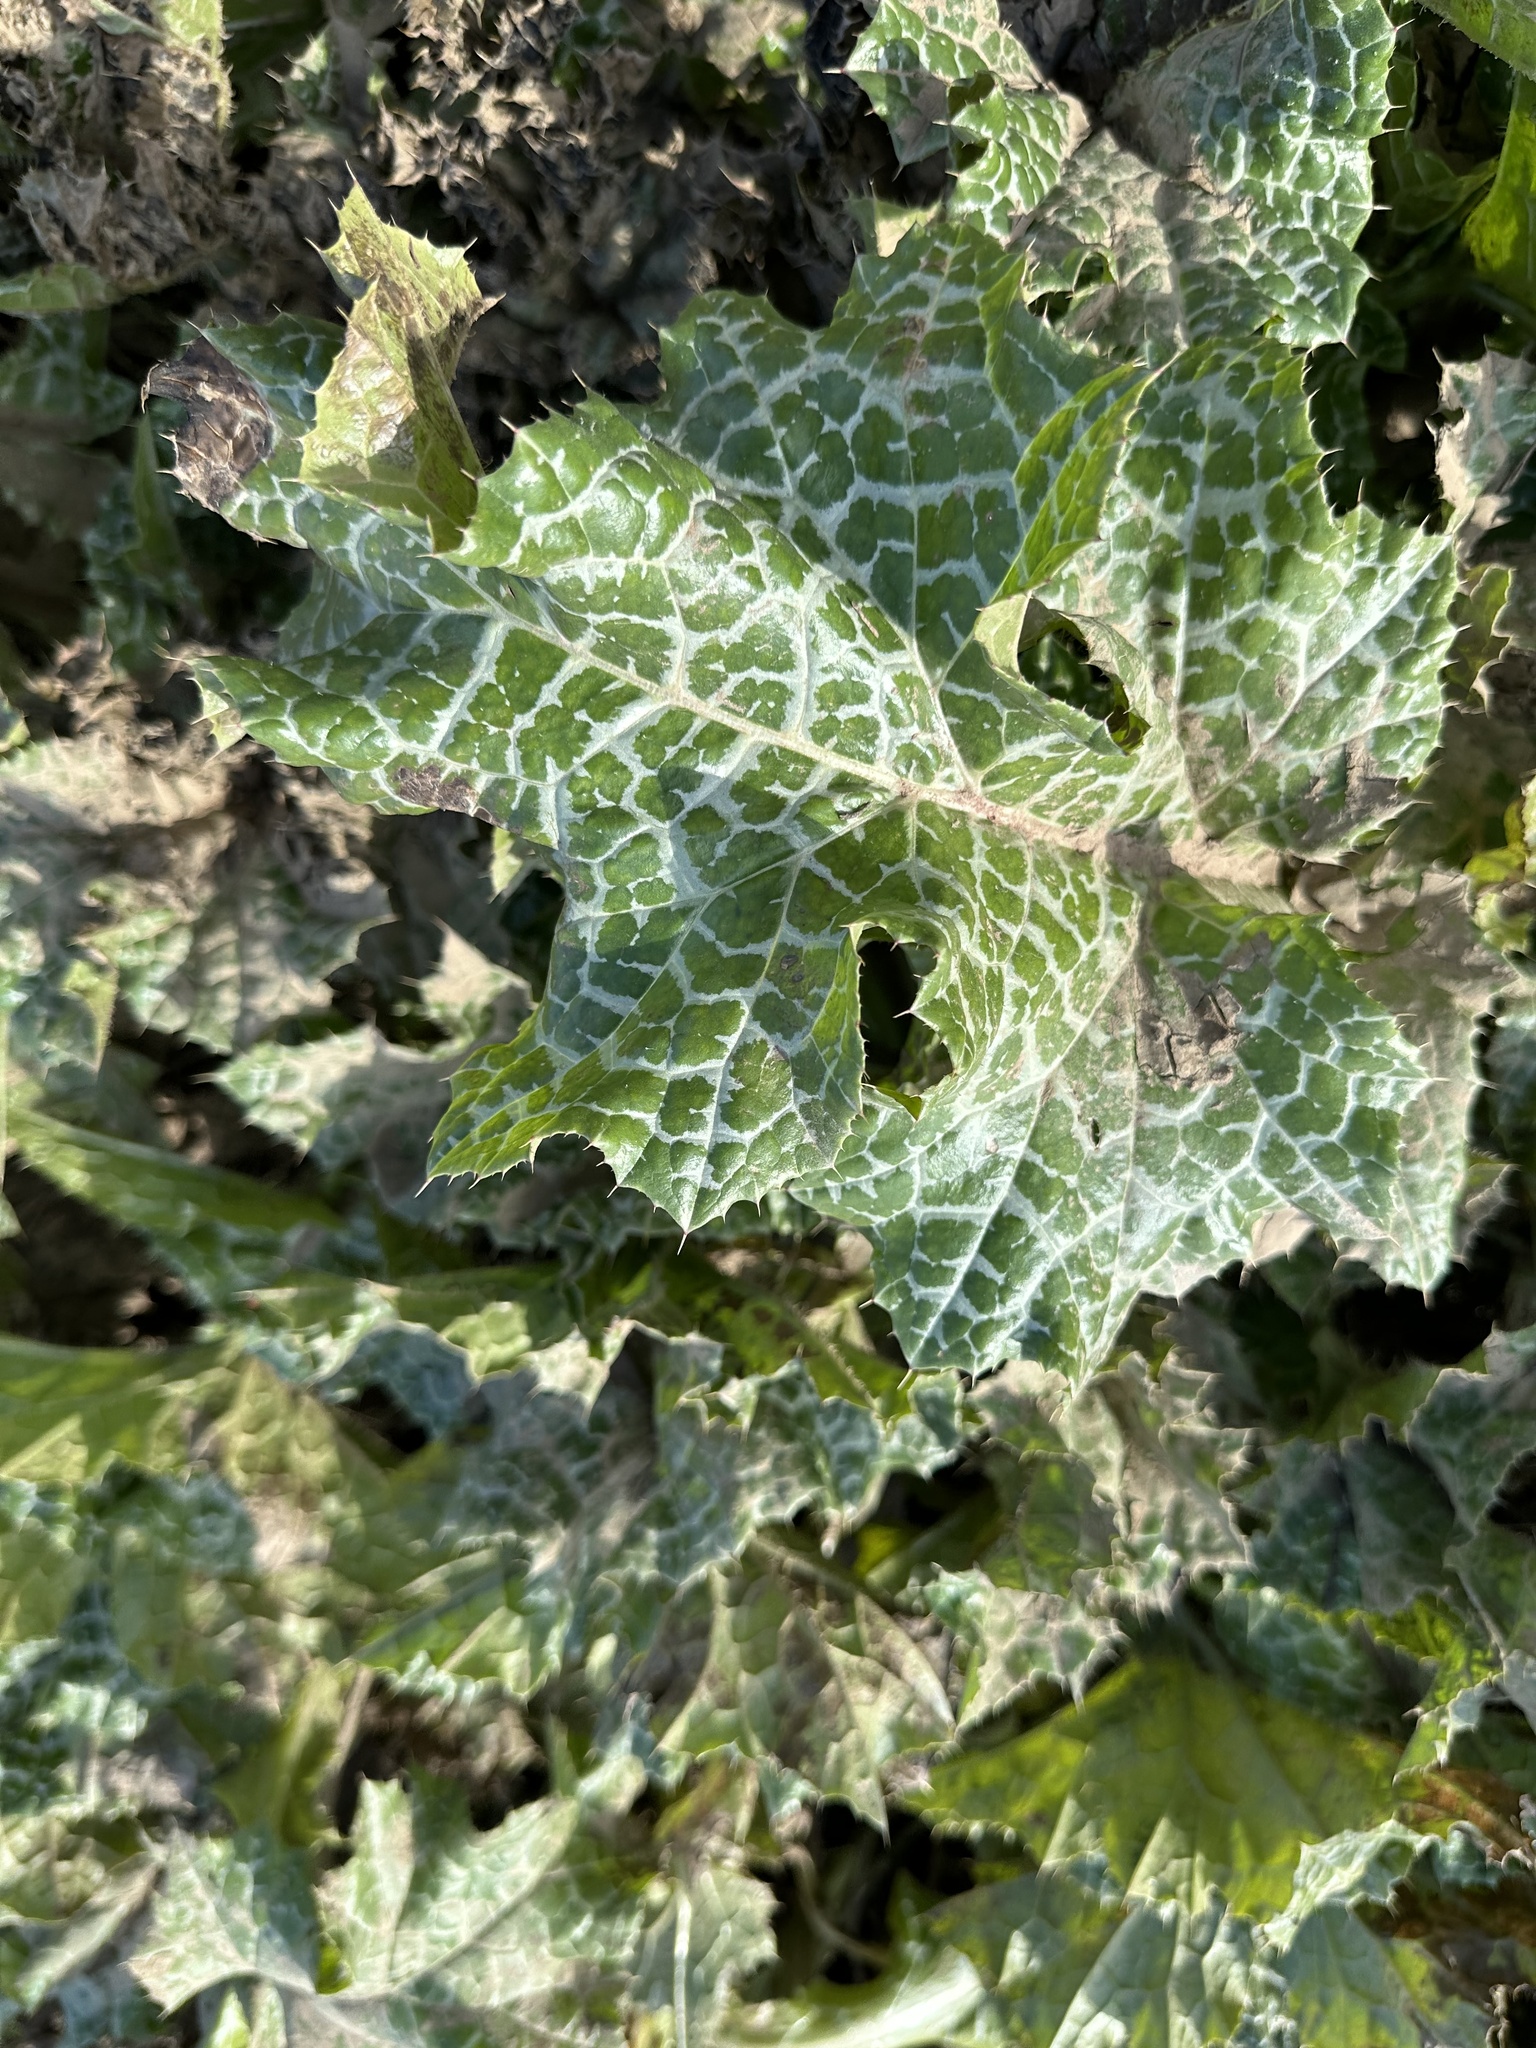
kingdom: Plantae
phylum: Tracheophyta
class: Magnoliopsida
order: Asterales
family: Asteraceae
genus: Silybum
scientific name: Silybum marianum
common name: Milk thistle
